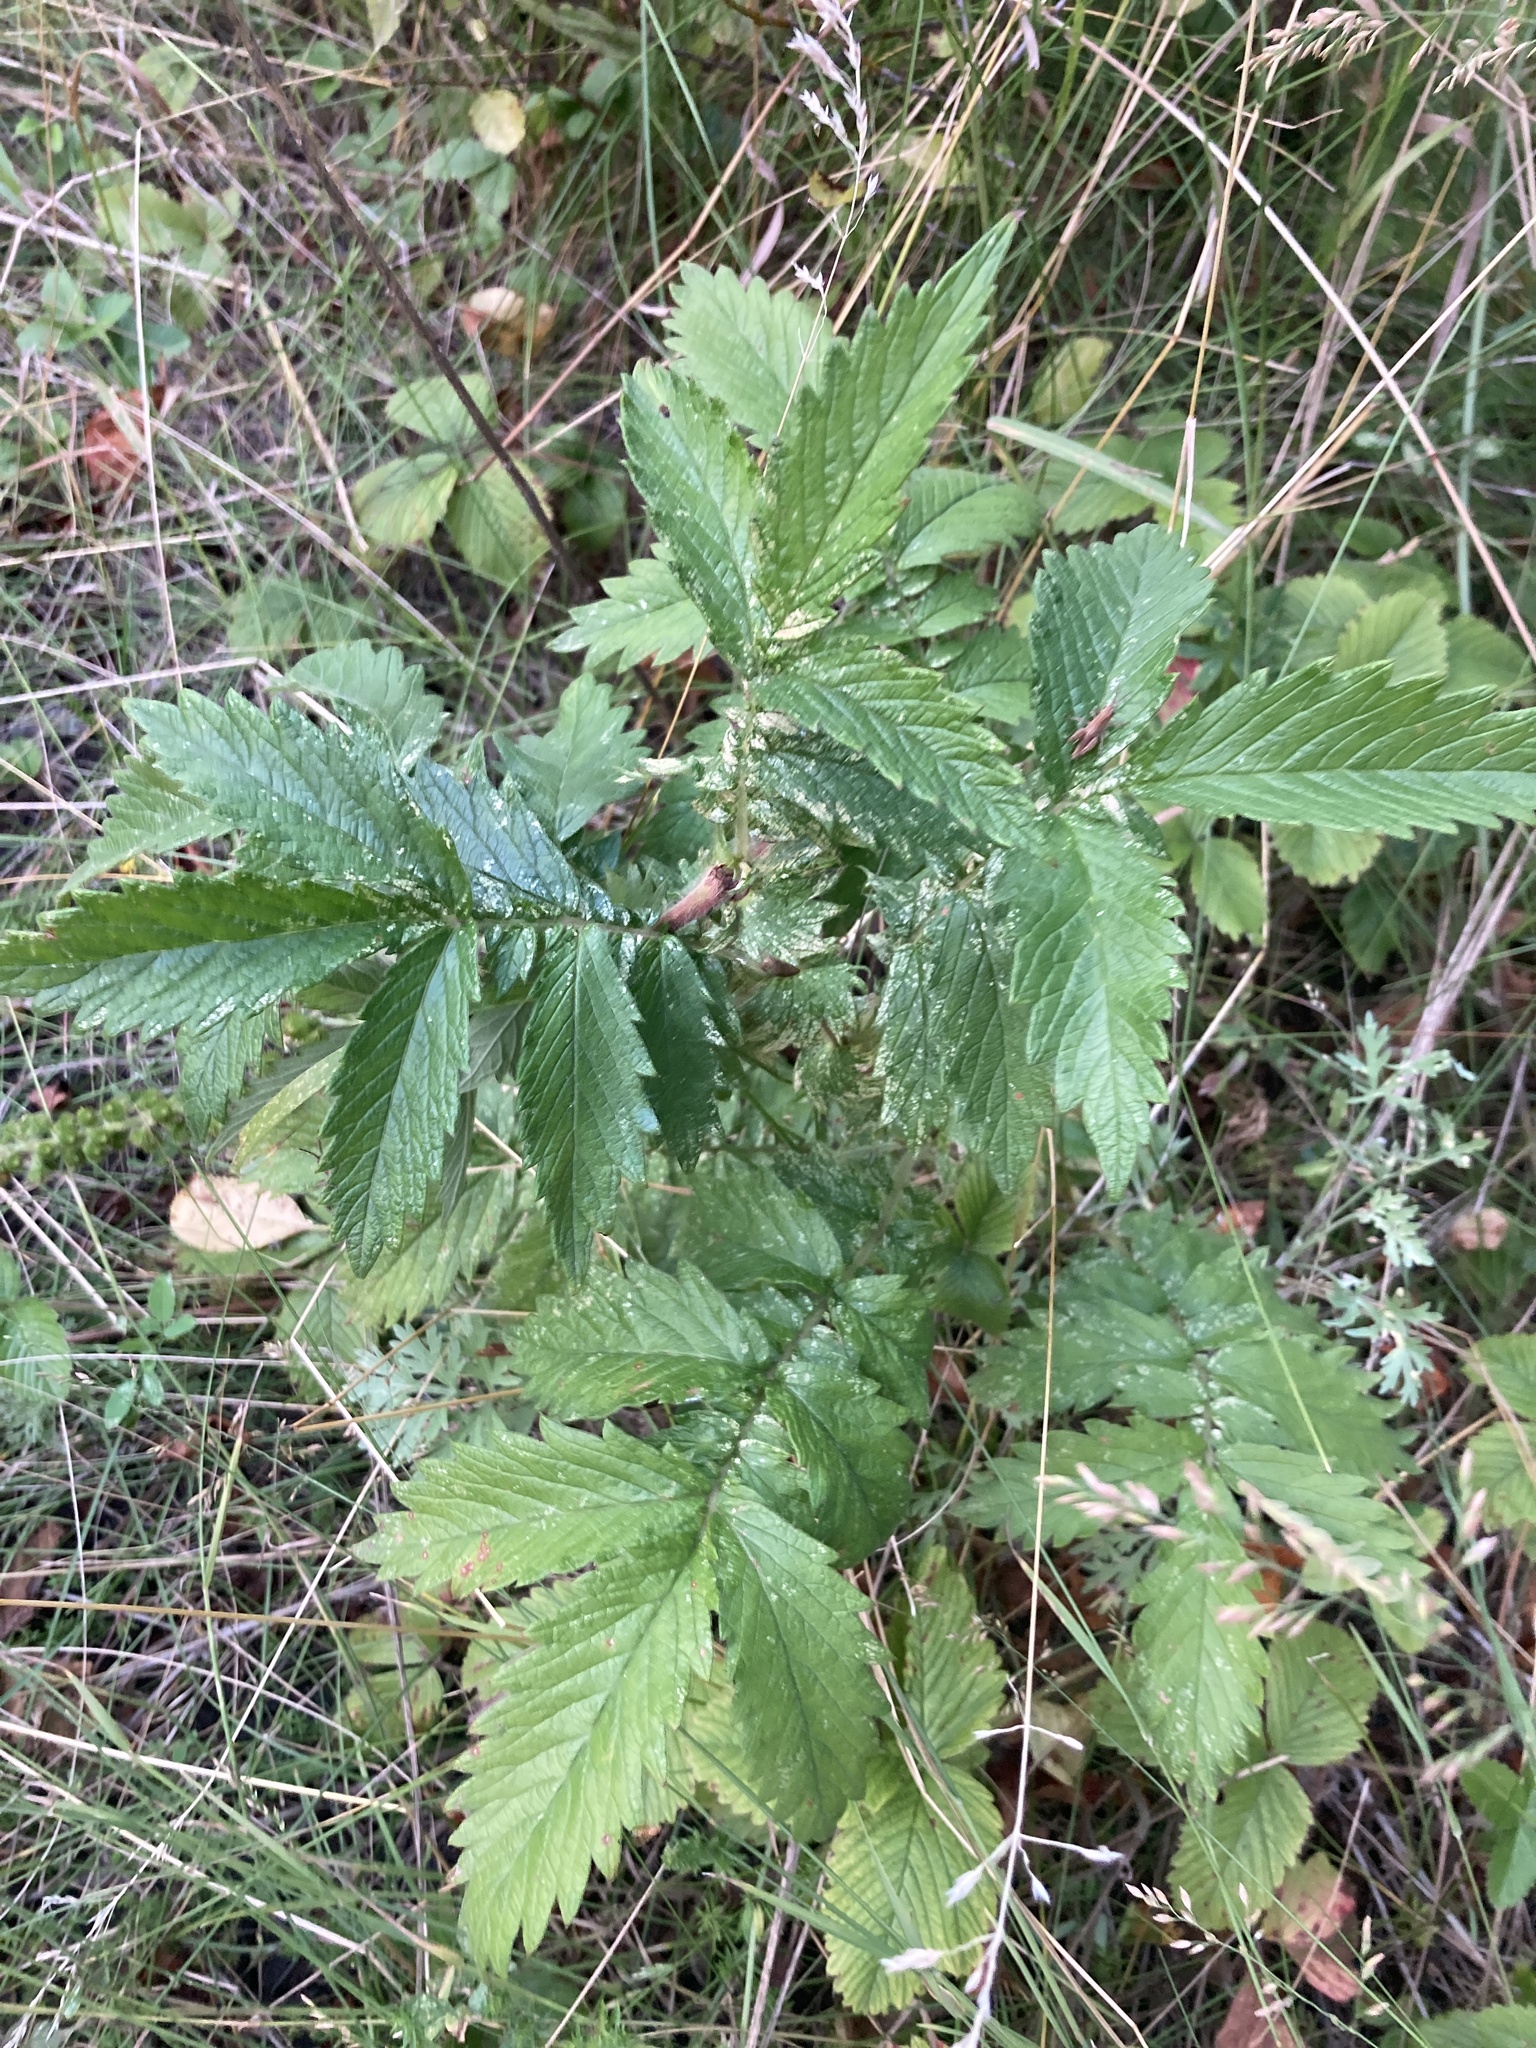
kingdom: Plantae
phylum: Tracheophyta
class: Magnoliopsida
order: Rosales
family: Rosaceae
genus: Agrimonia
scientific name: Agrimonia eupatoria
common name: Agrimony
